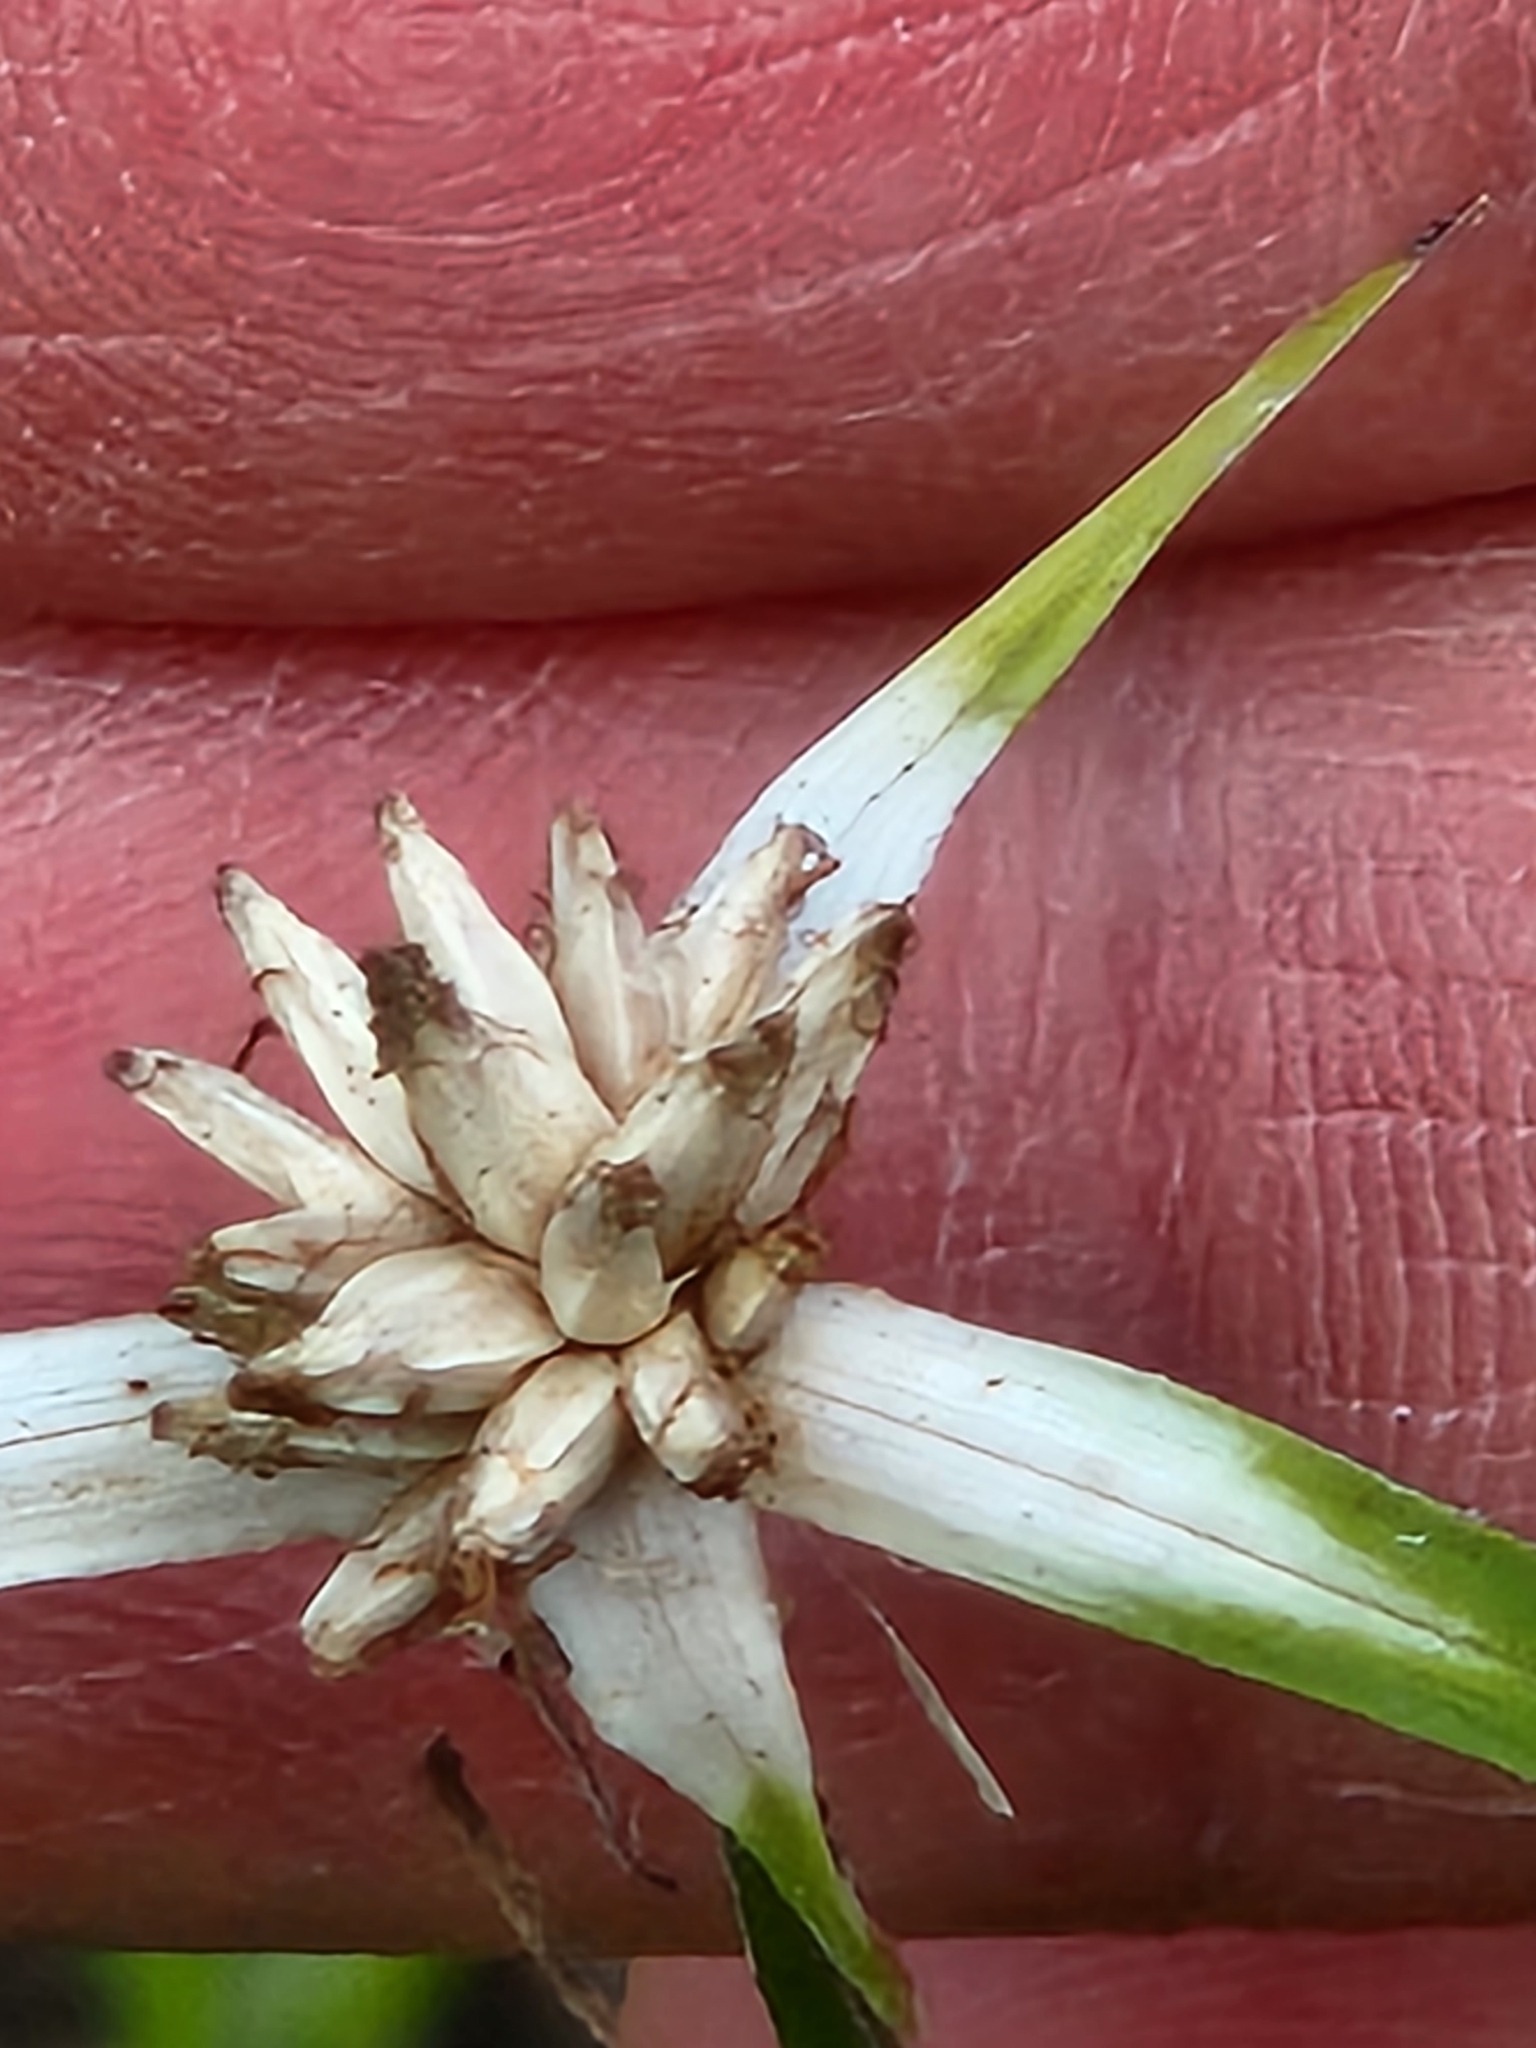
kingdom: Plantae
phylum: Tracheophyta
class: Liliopsida
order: Poales
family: Cyperaceae
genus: Rhynchospora
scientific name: Rhynchospora colorata
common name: Star sedge
